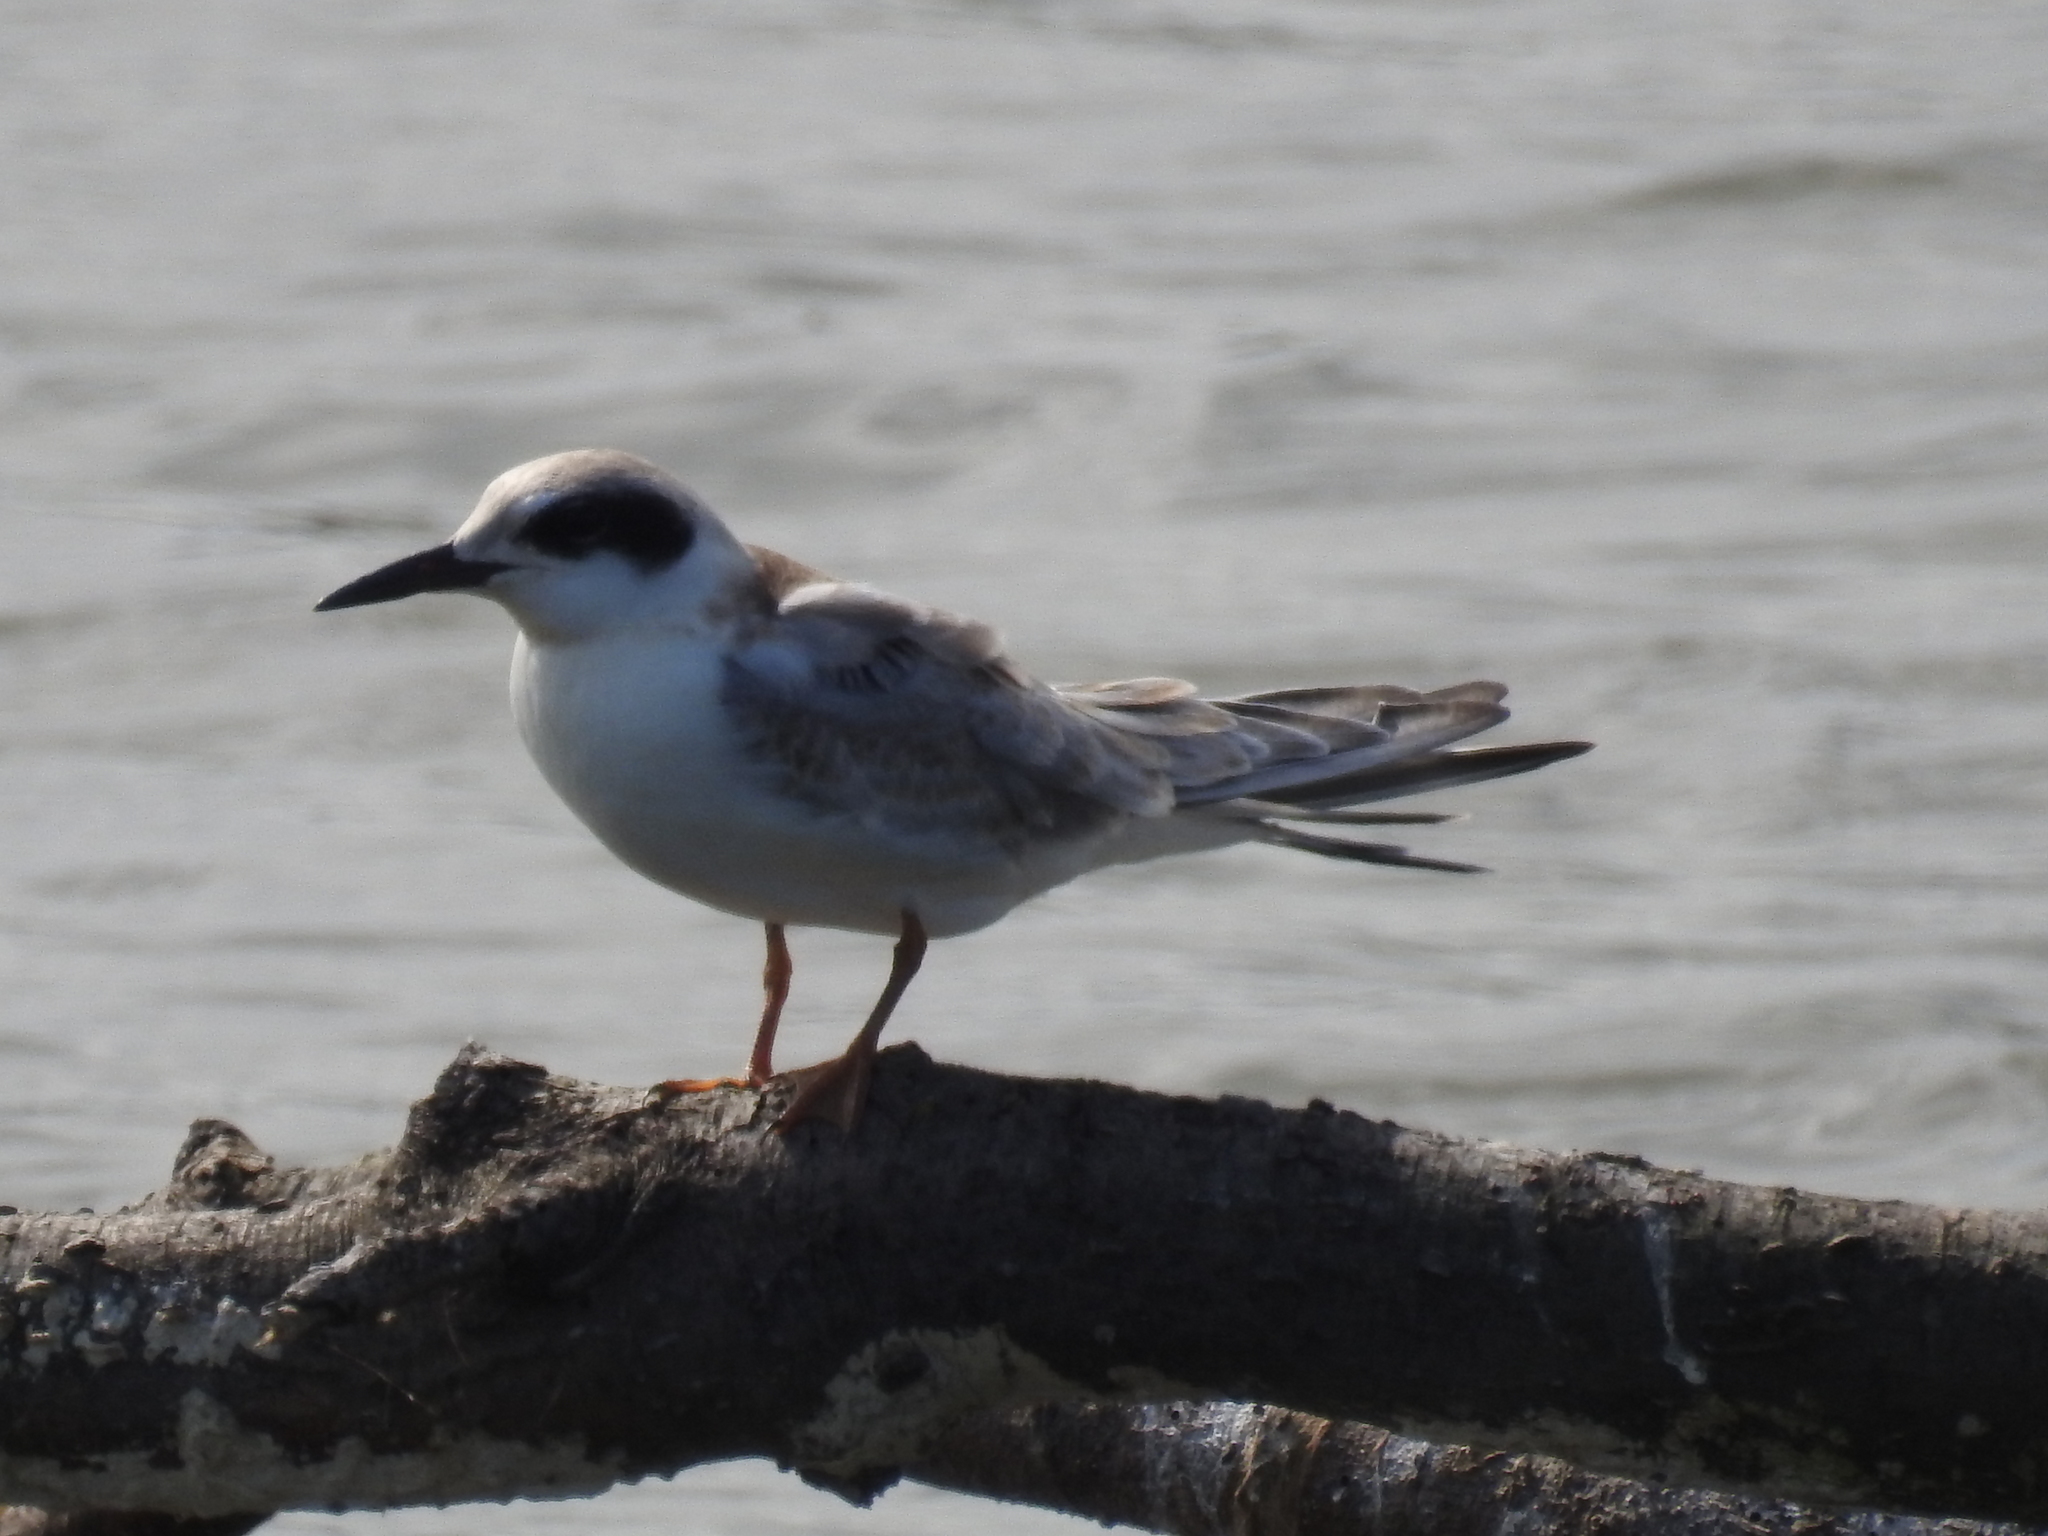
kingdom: Animalia
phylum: Chordata
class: Aves
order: Charadriiformes
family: Laridae
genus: Sterna
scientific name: Sterna forsteri
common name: Forster's tern
